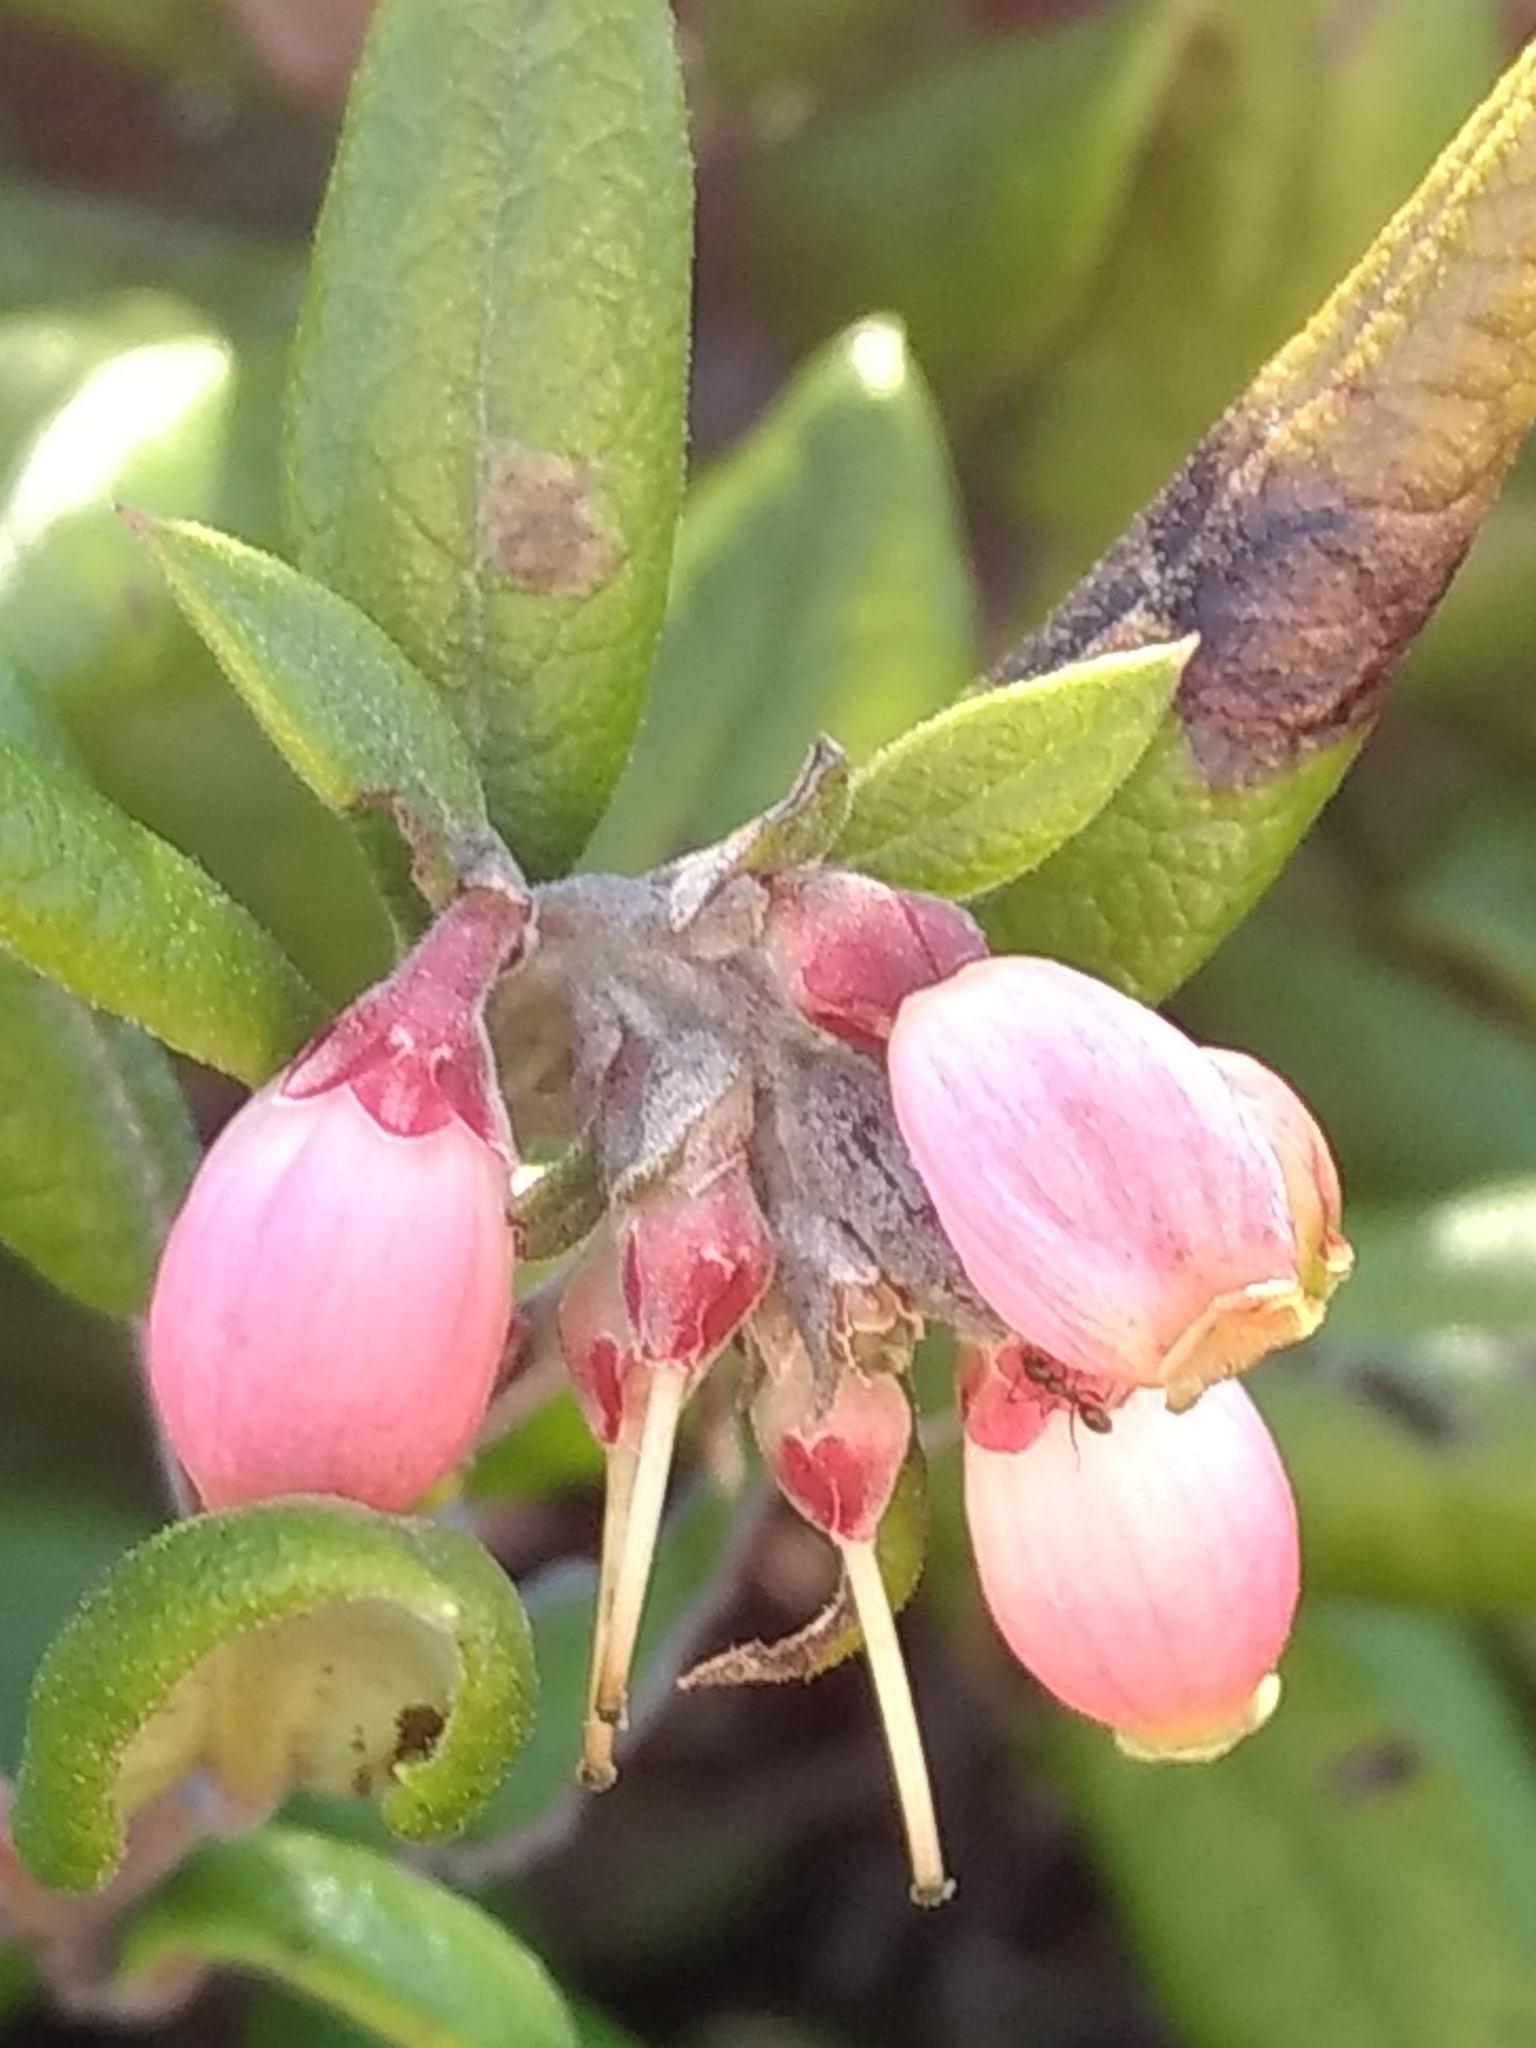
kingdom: Plantae
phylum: Tracheophyta
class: Magnoliopsida
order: Ericales
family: Ericaceae
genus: Arctostaphylos
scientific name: Arctostaphylos bicolor
